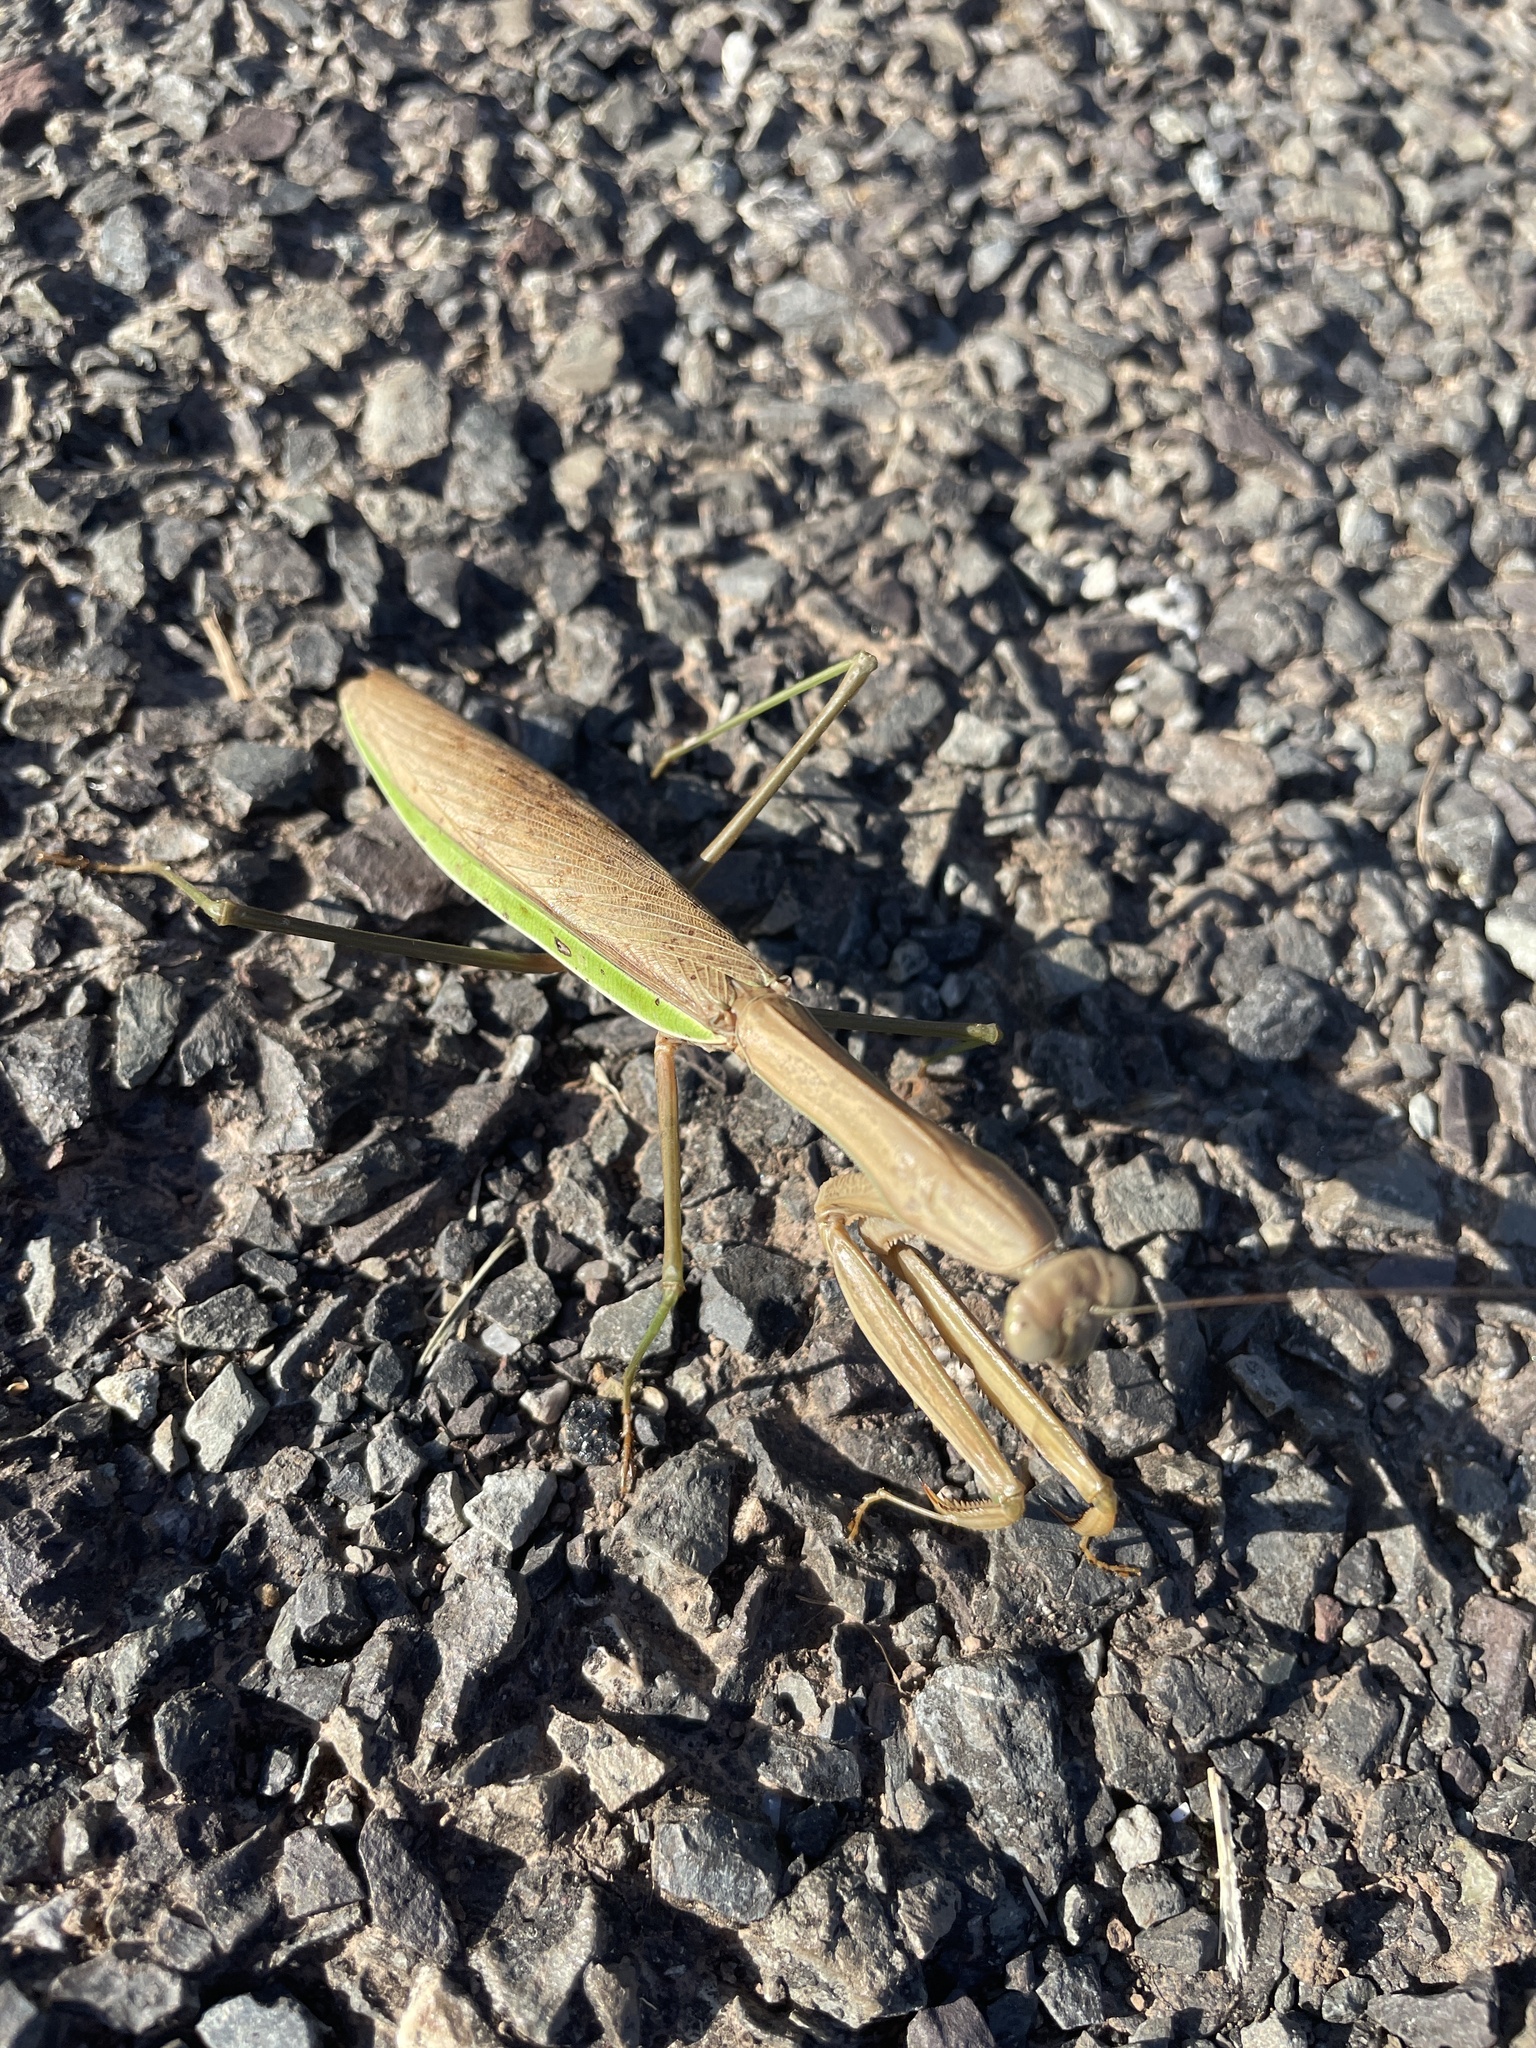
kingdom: Animalia
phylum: Arthropoda
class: Insecta
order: Mantodea
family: Mantidae
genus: Tenodera
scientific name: Tenodera sinensis
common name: Chinese mantis
